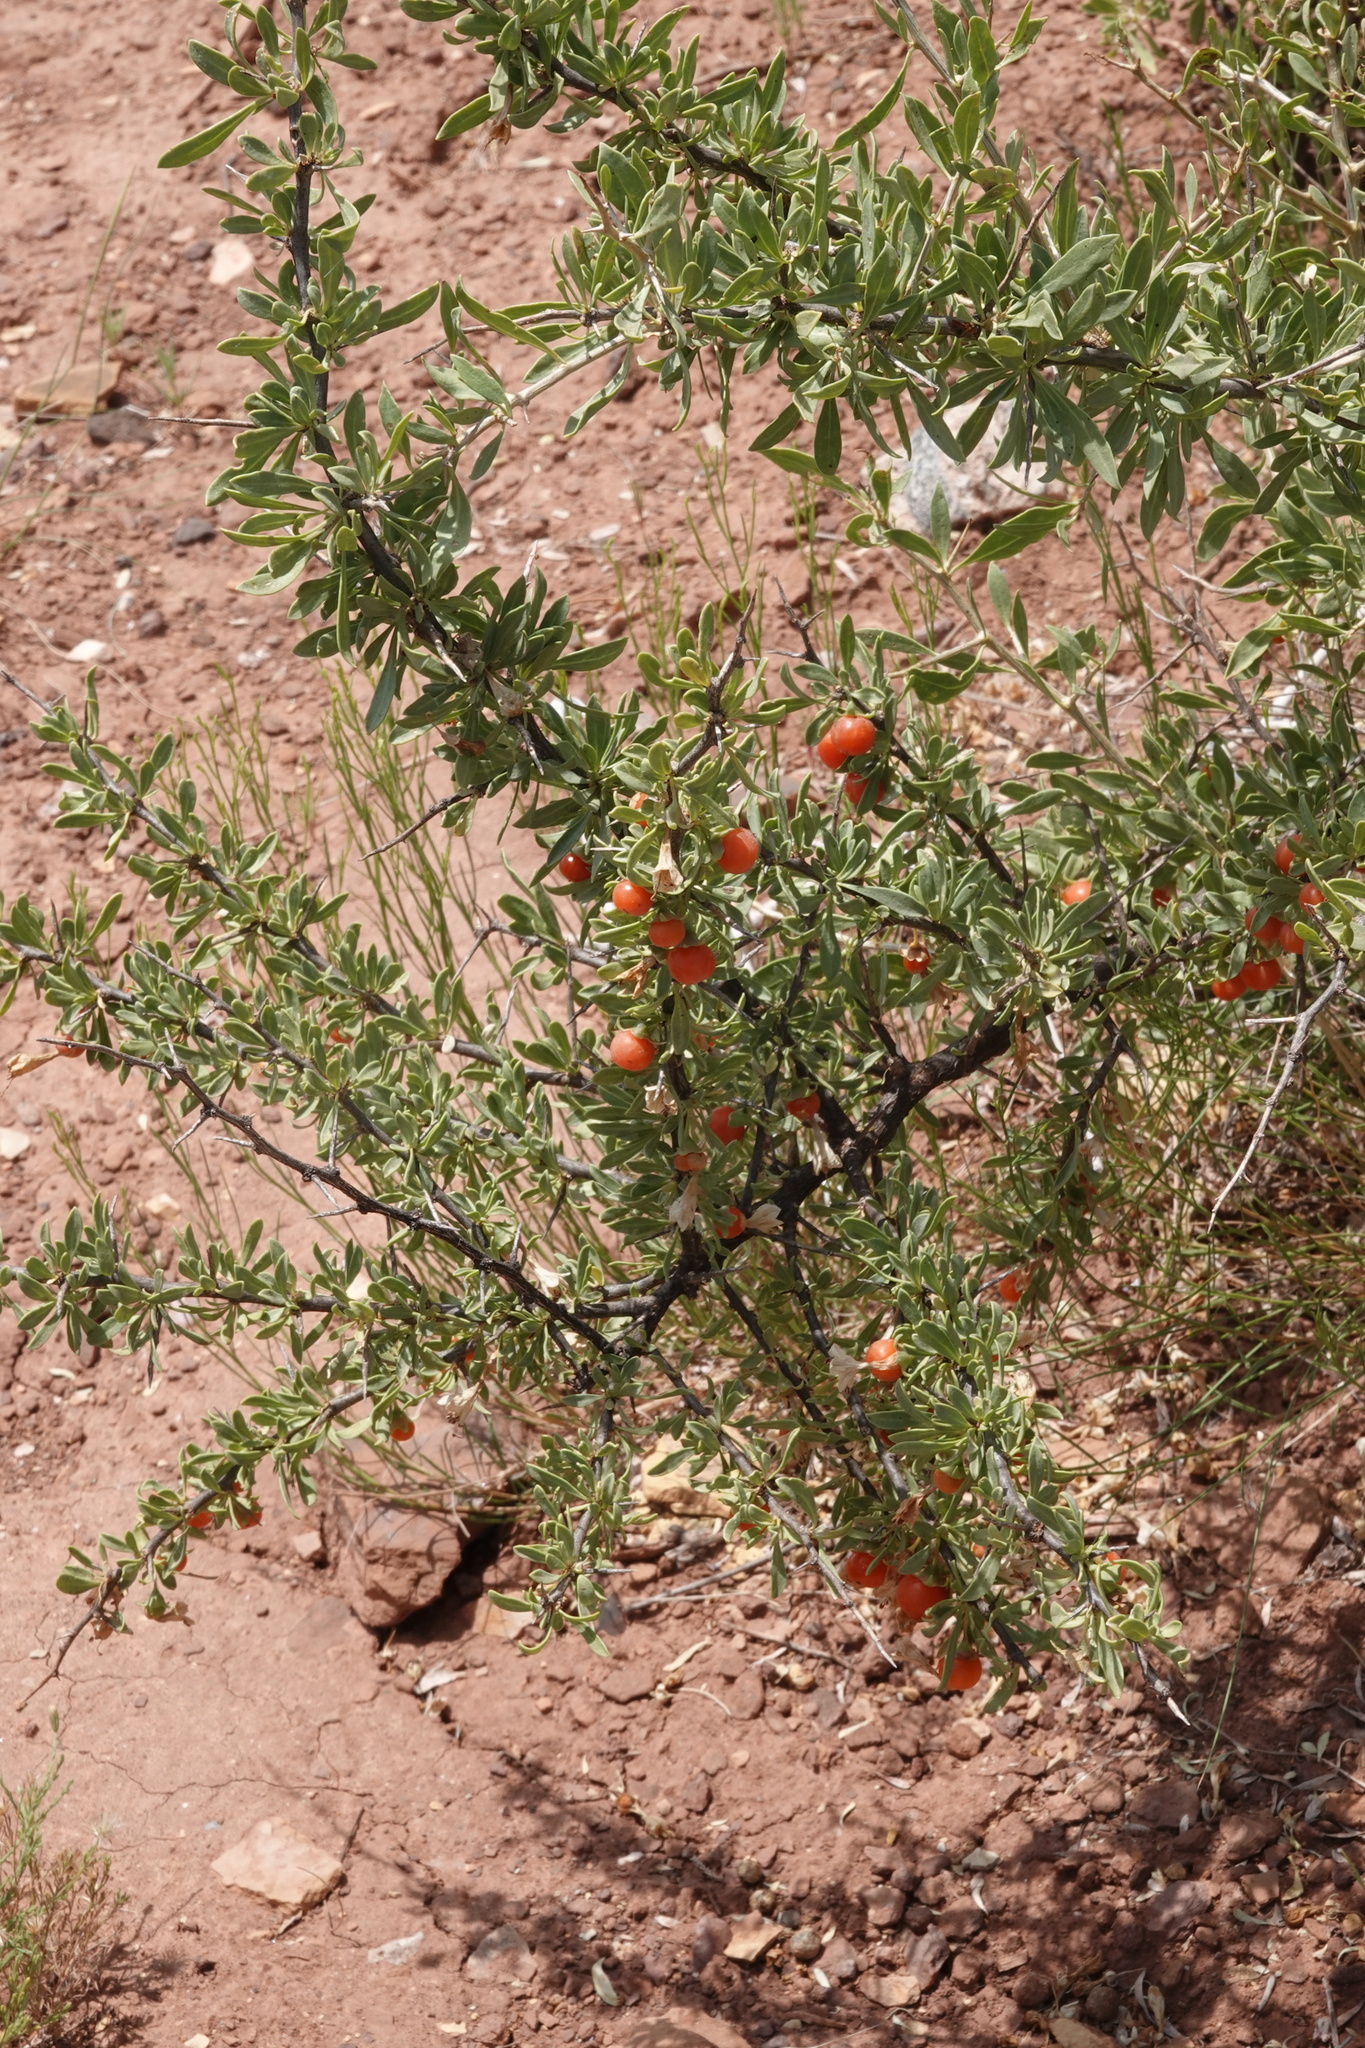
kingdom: Plantae
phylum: Tracheophyta
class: Magnoliopsida
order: Solanales
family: Solanaceae
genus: Lycium
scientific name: Lycium pallidum
